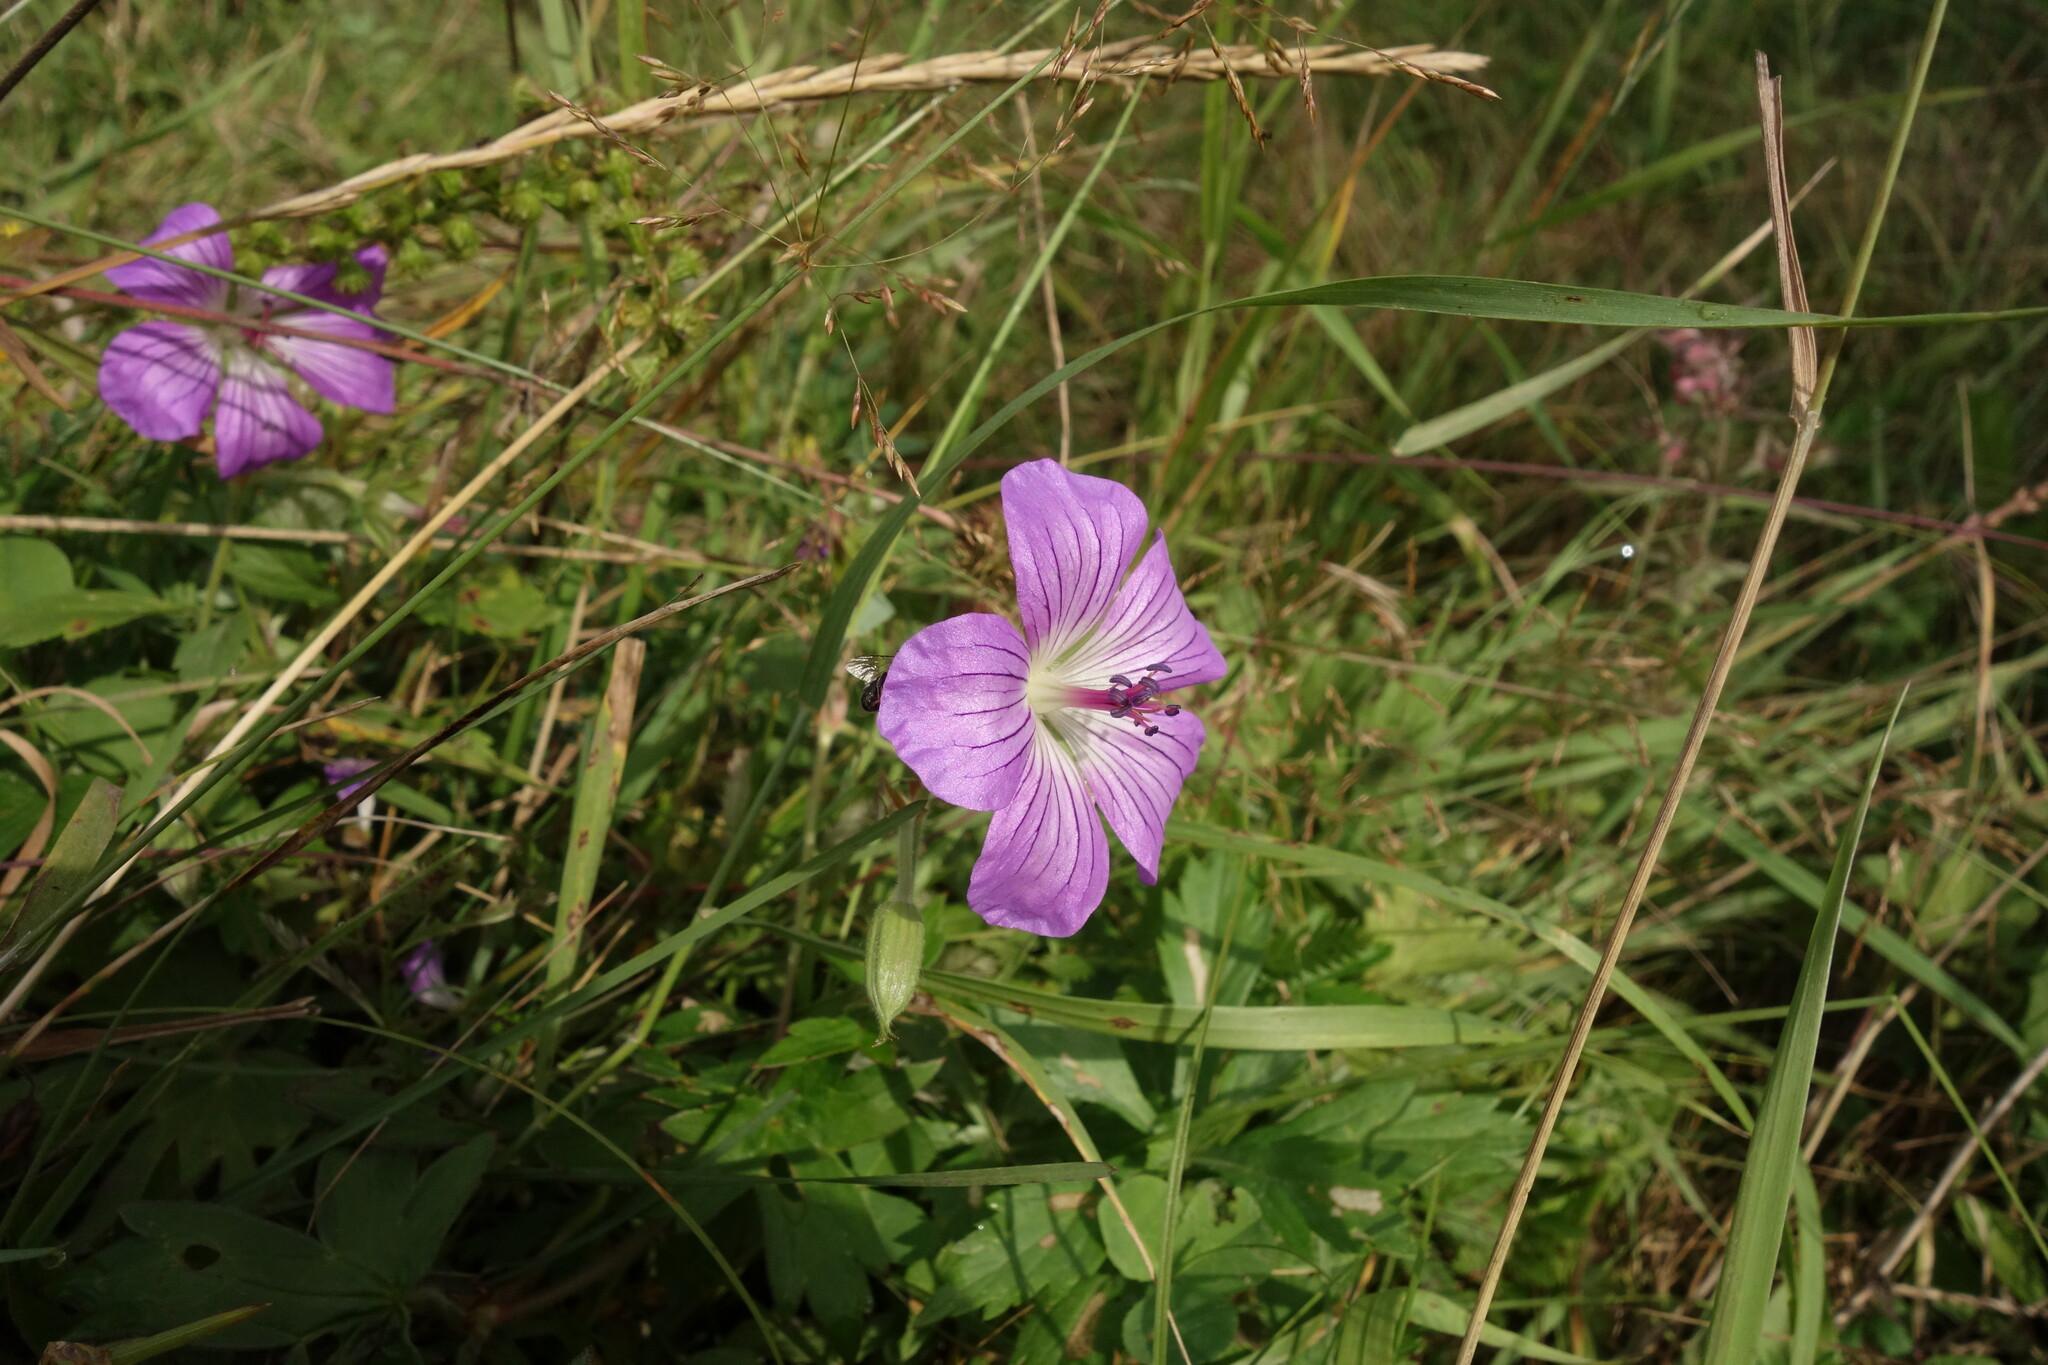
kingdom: Plantae
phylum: Tracheophyta
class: Magnoliopsida
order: Geraniales
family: Geraniaceae
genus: Geranium
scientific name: Geranium wlassovianum
